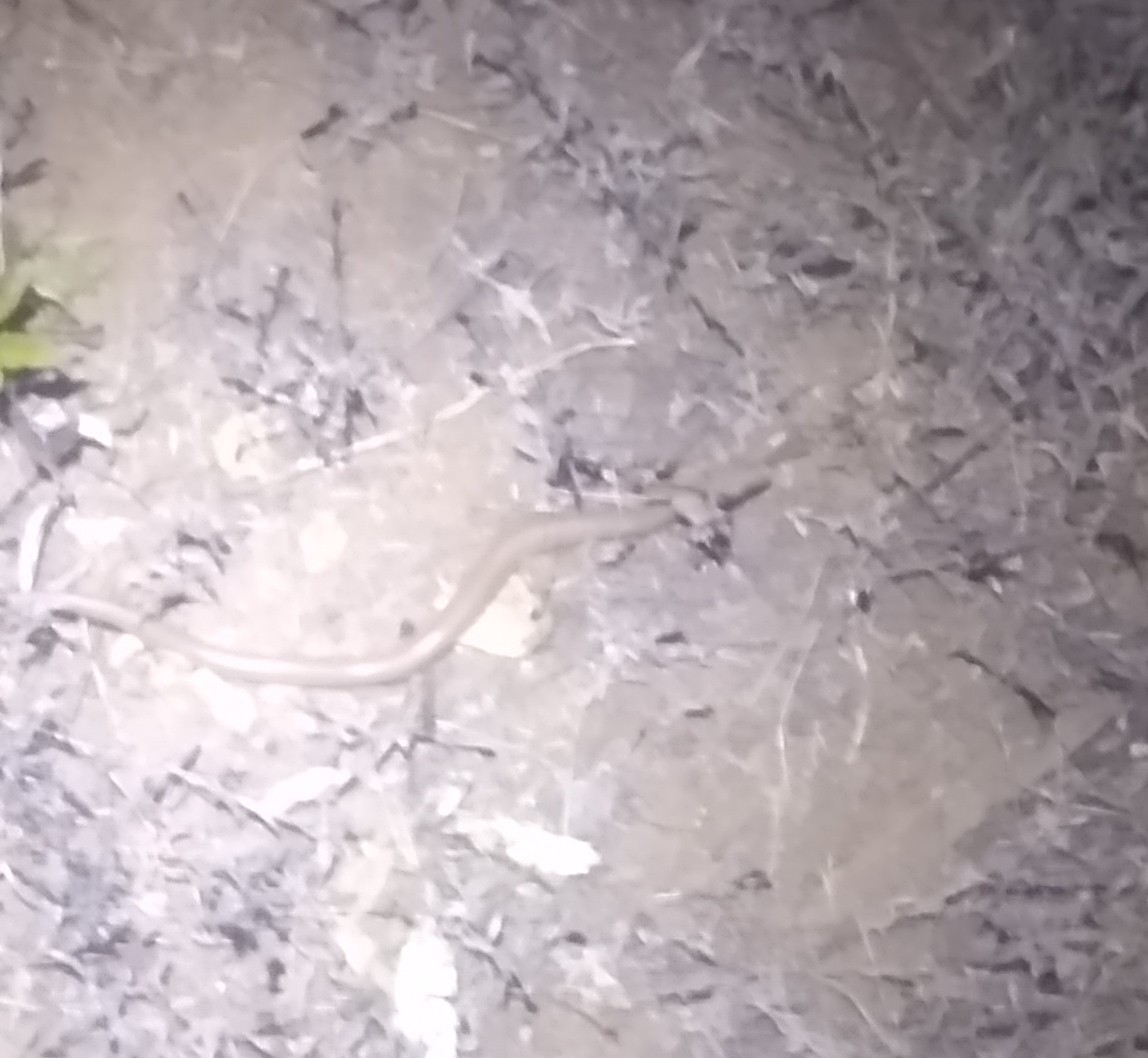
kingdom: Animalia
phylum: Chordata
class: Squamata
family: Boidae
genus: Charina
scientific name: Charina bottae
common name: Northern rubber boa
